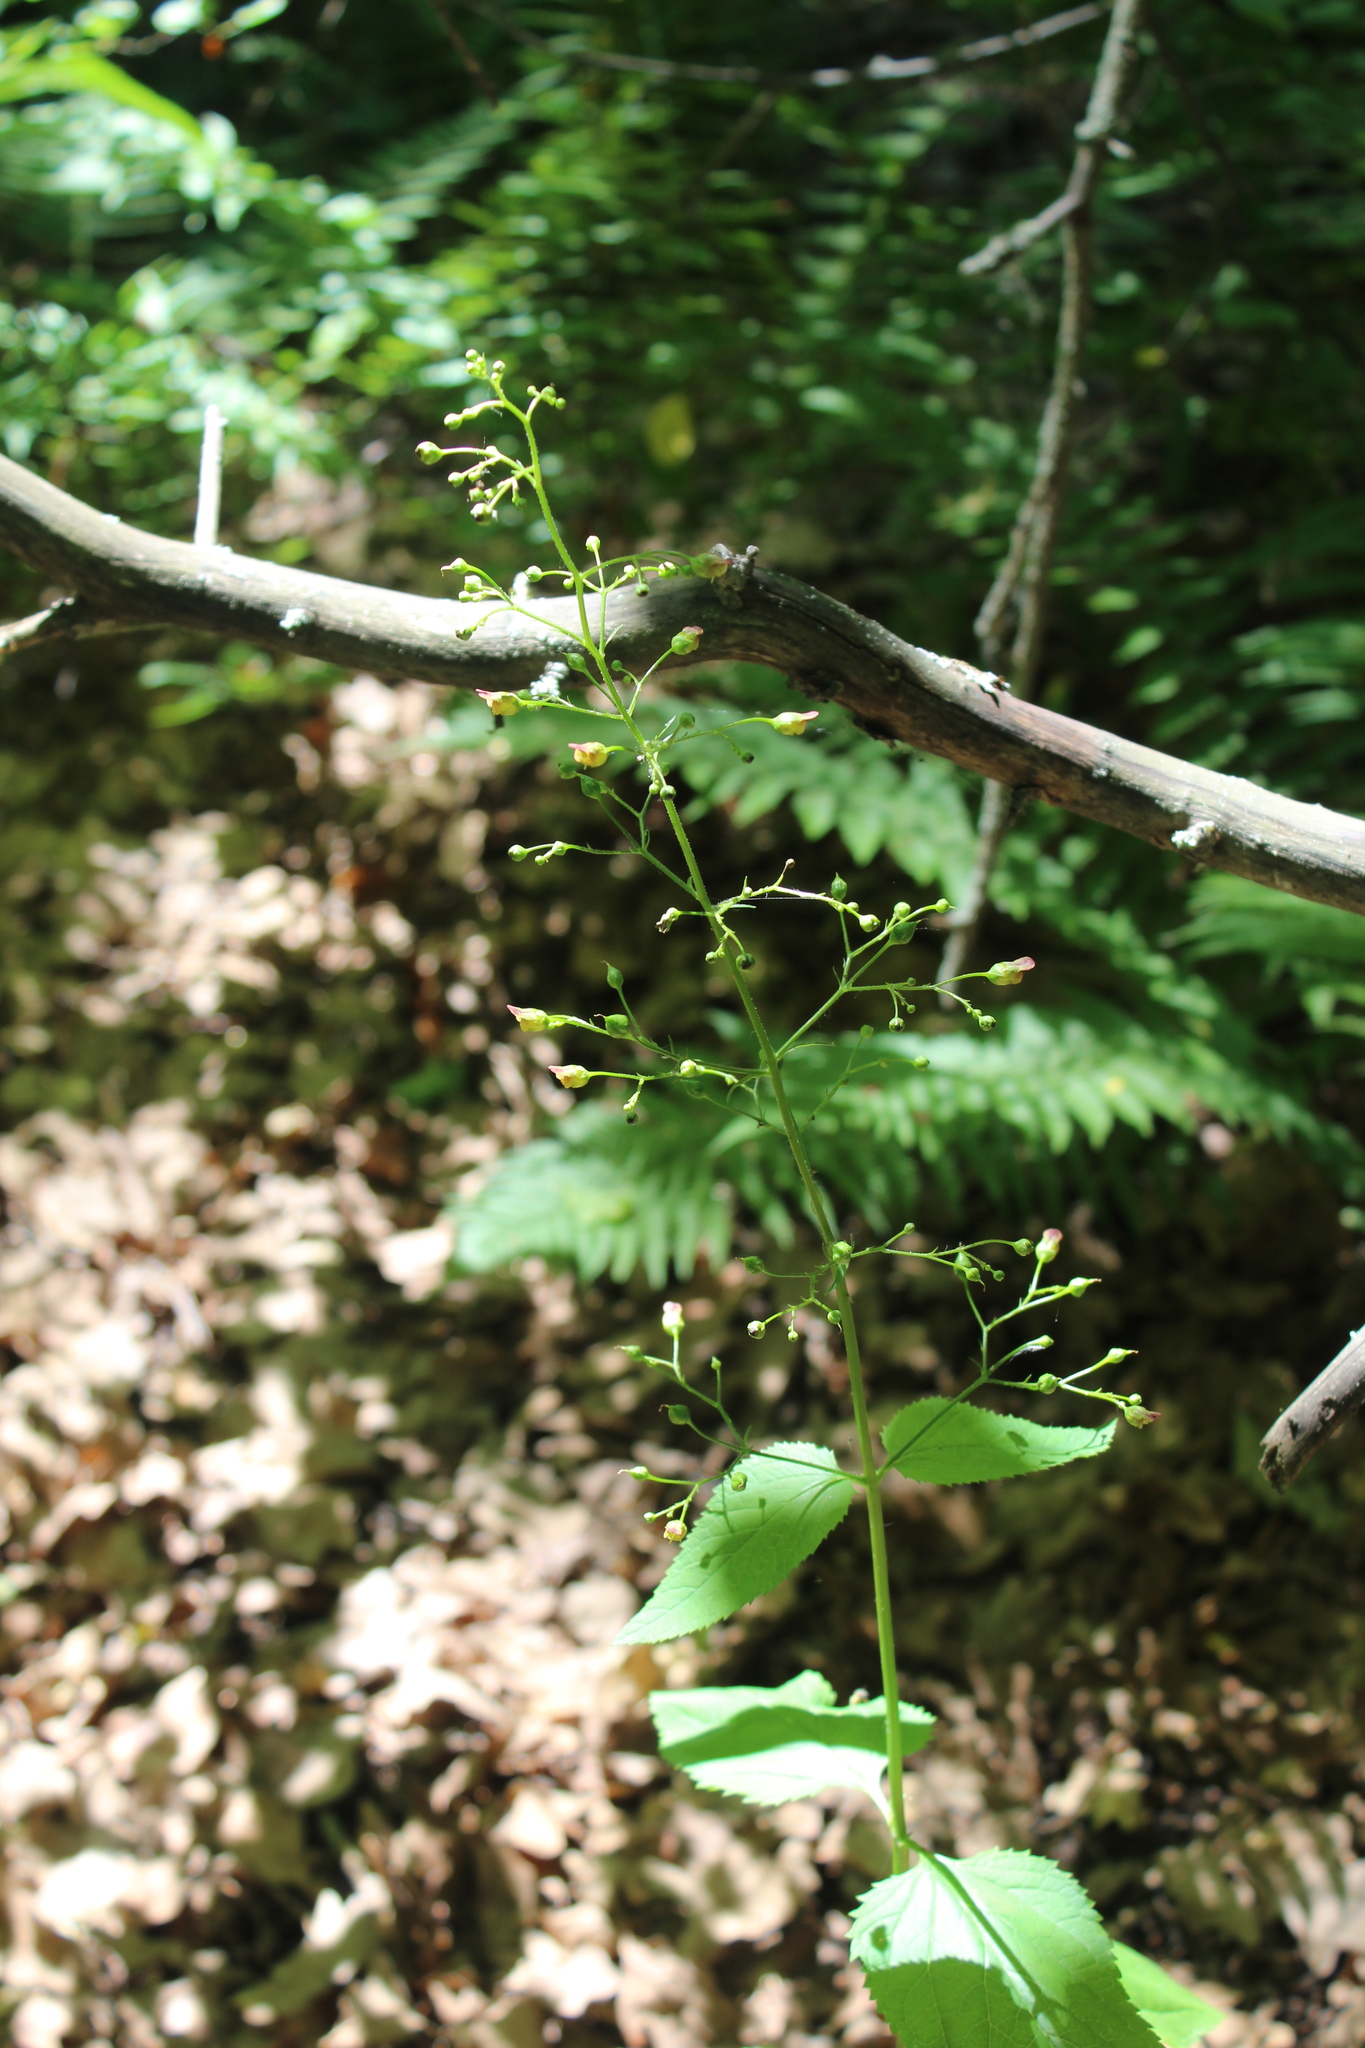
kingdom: Plantae
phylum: Tracheophyta
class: Magnoliopsida
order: Lamiales
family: Scrophulariaceae
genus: Scrophularia
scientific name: Scrophularia nodosa
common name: Common figwort
